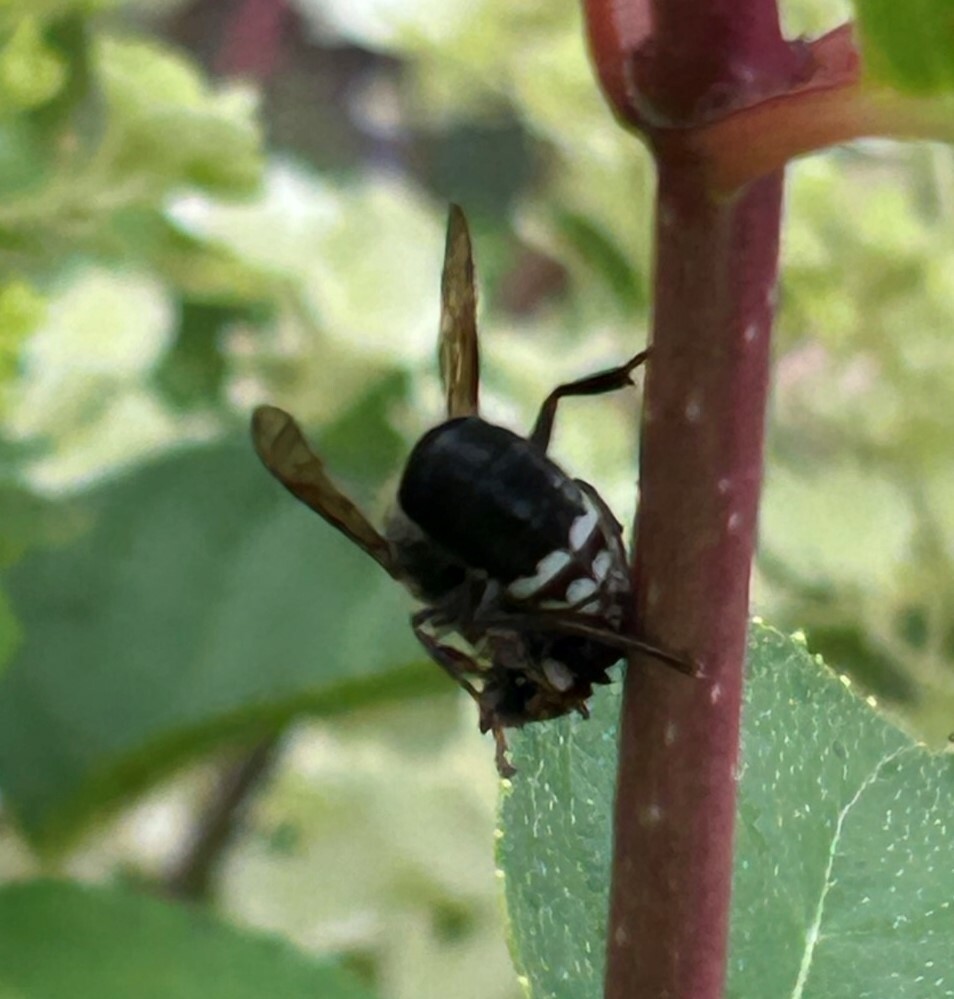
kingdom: Animalia
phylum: Arthropoda
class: Insecta
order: Hymenoptera
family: Vespidae
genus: Dolichovespula
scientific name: Dolichovespula maculata
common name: Bald-faced hornet
